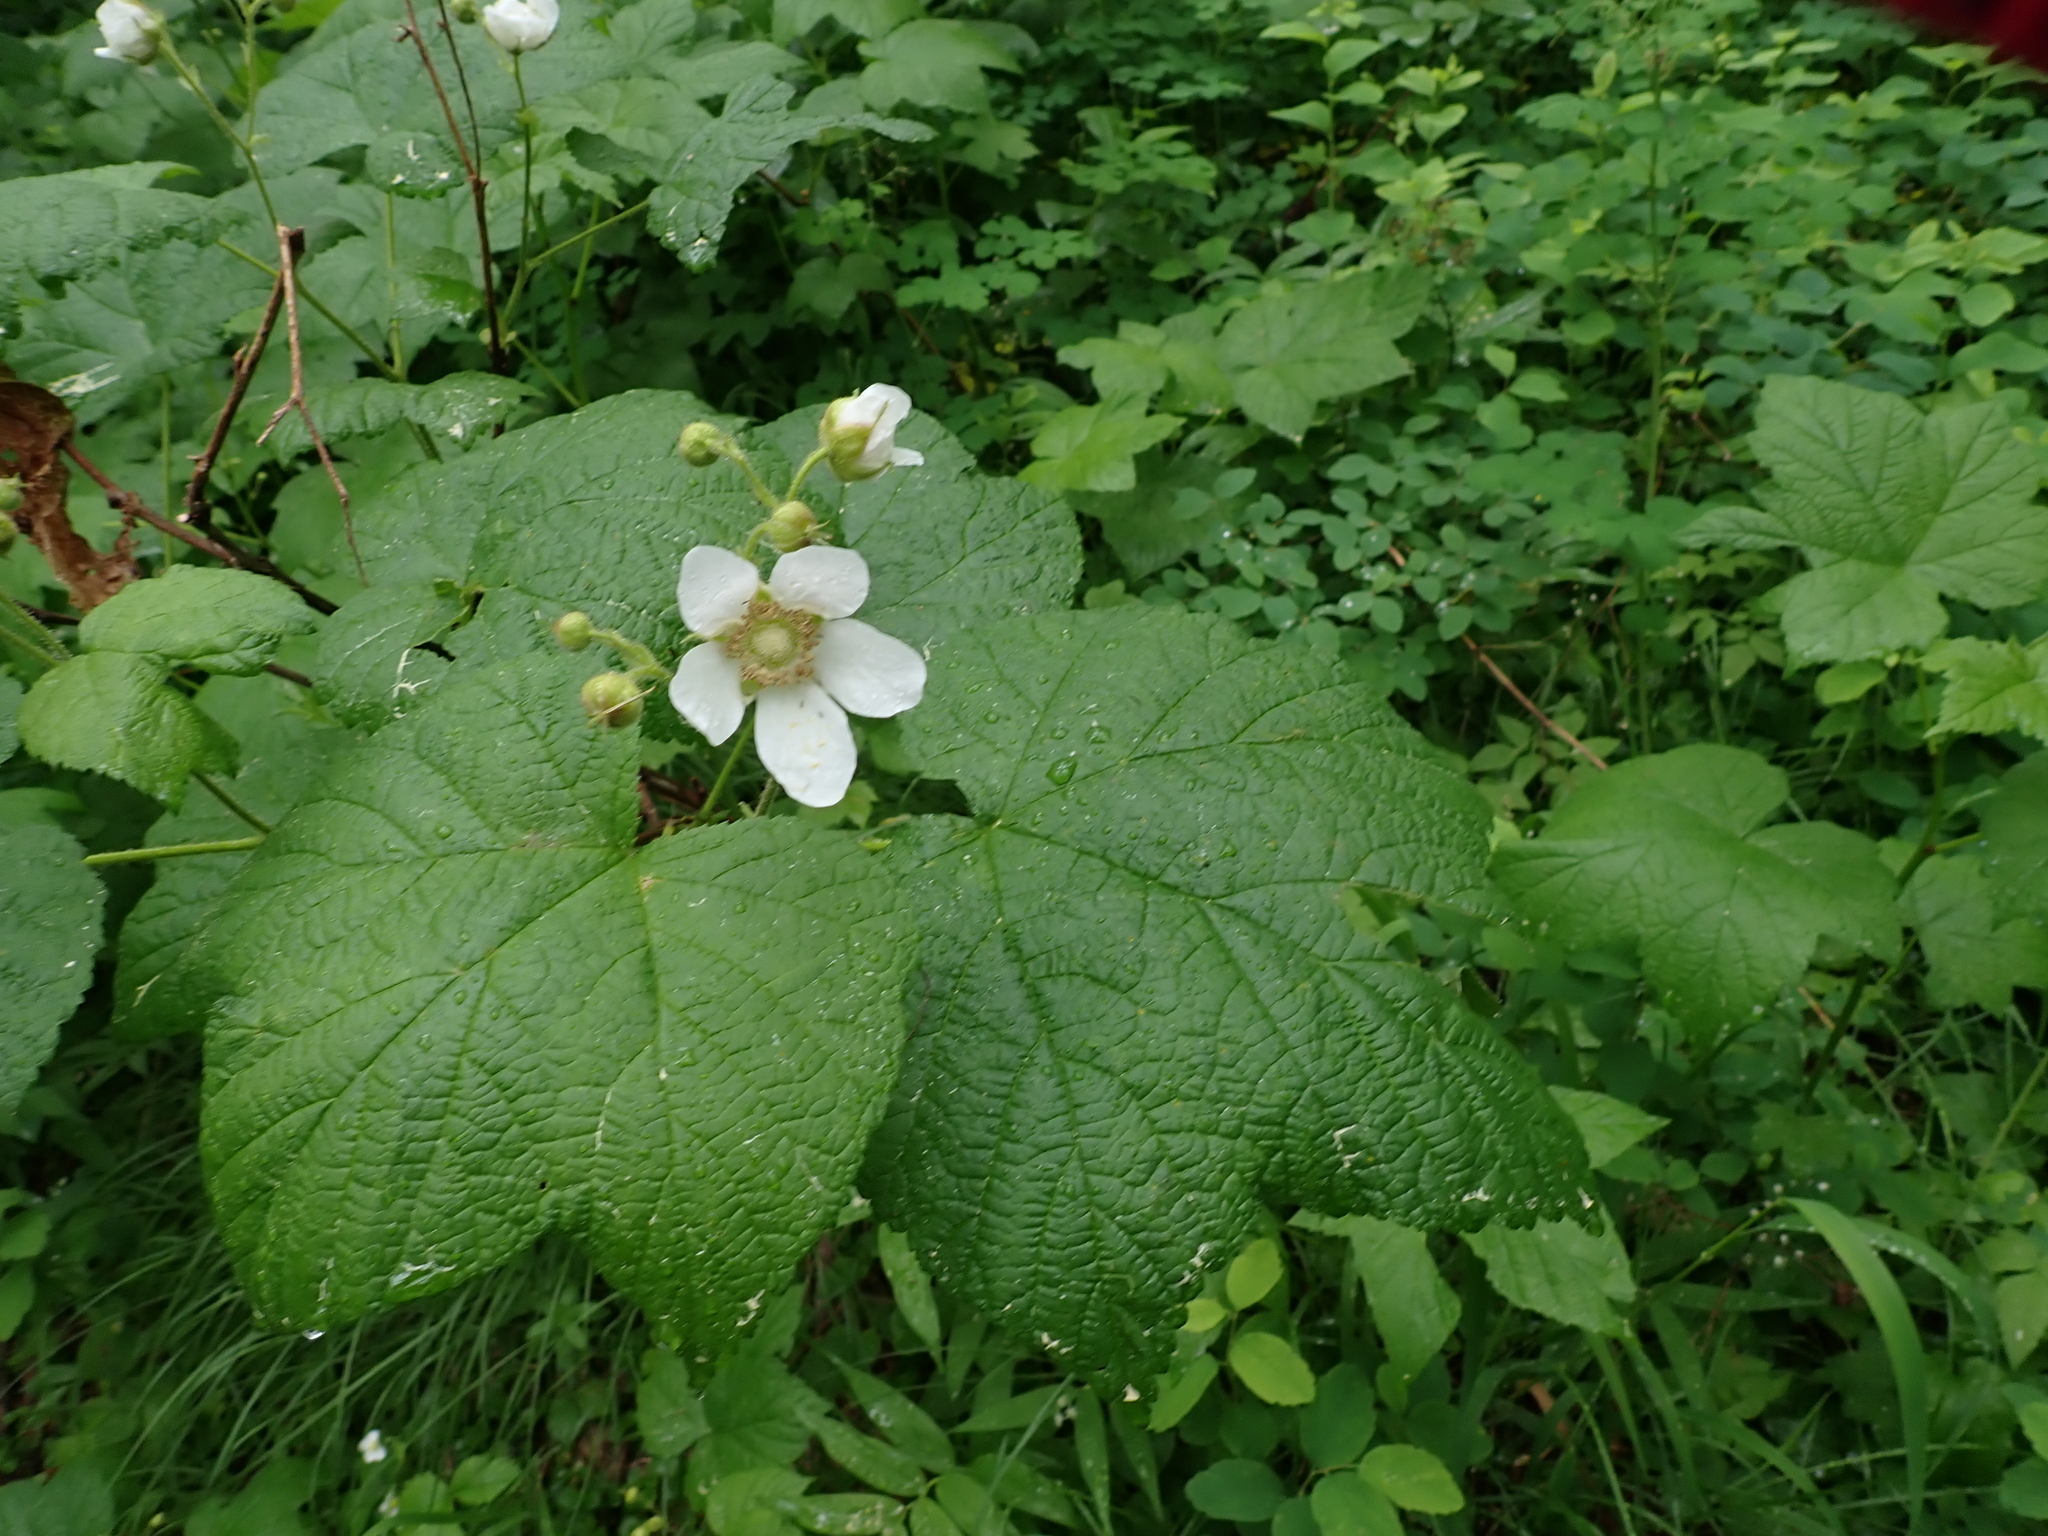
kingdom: Plantae
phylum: Tracheophyta
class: Magnoliopsida
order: Rosales
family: Rosaceae
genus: Rubus
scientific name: Rubus parviflorus
